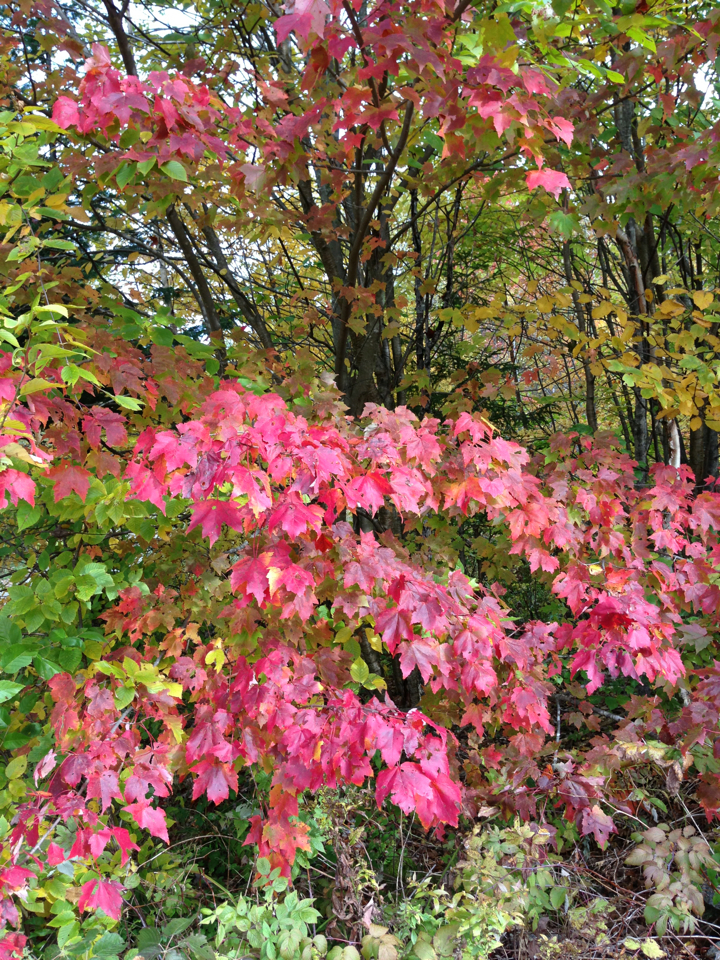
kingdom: Plantae
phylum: Tracheophyta
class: Magnoliopsida
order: Sapindales
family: Sapindaceae
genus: Acer
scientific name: Acer rubrum
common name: Red maple
